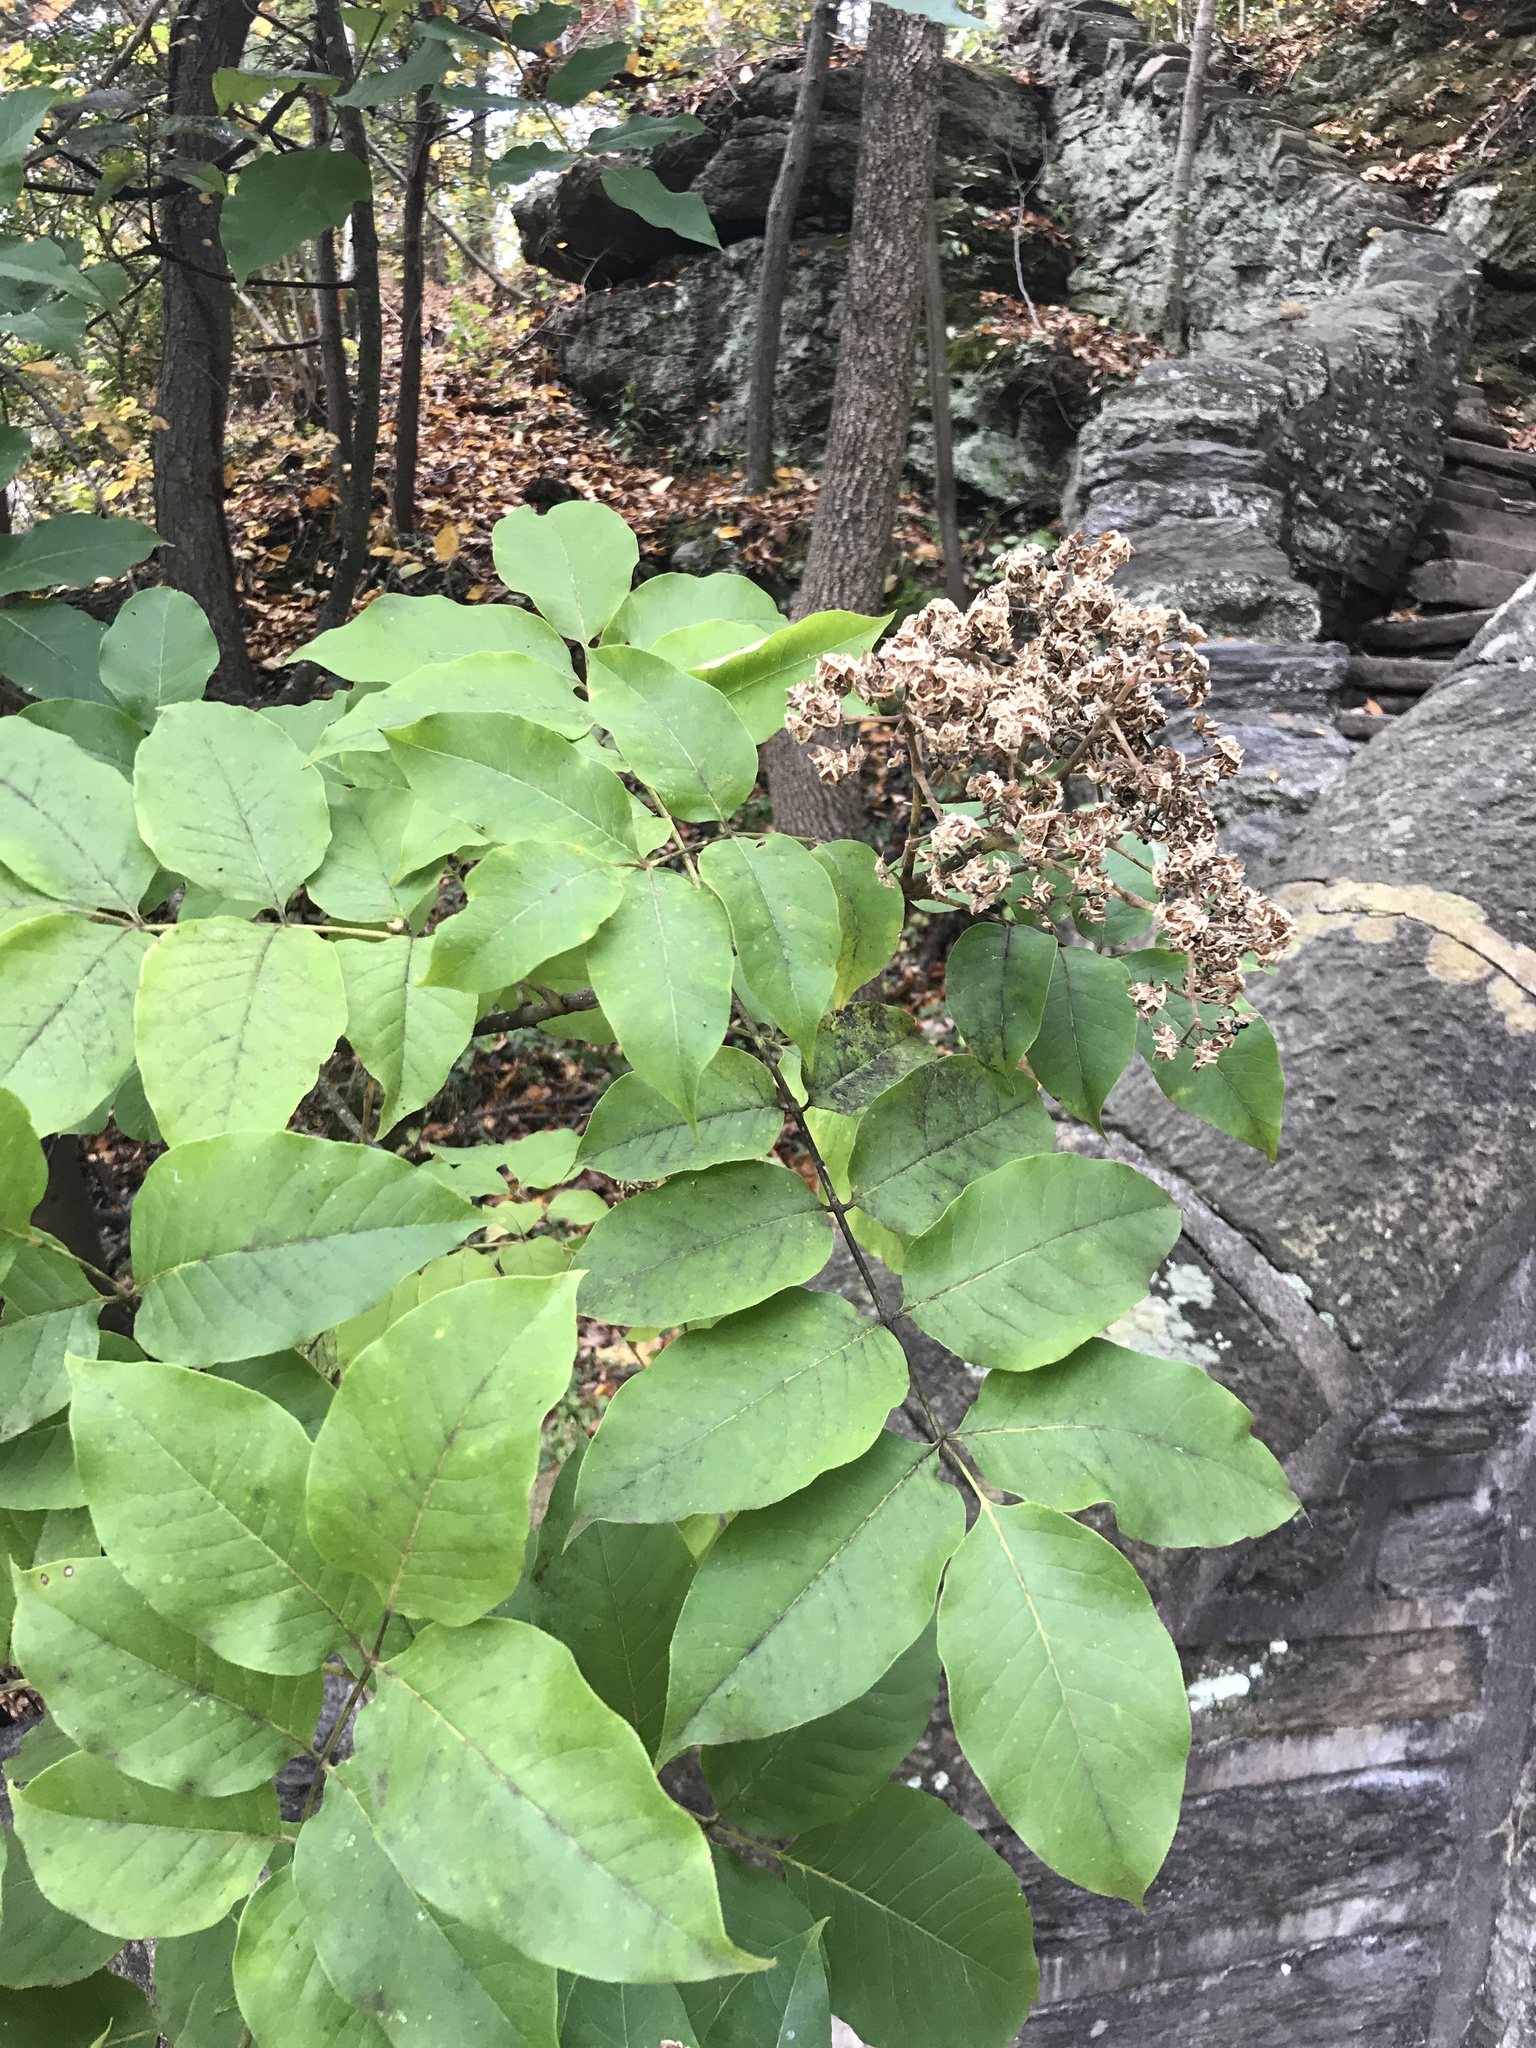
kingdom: Plantae
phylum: Tracheophyta
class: Magnoliopsida
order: Sapindales
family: Rutaceae
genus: Tetradium
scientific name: Tetradium daniellii
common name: Bee-bee tree
